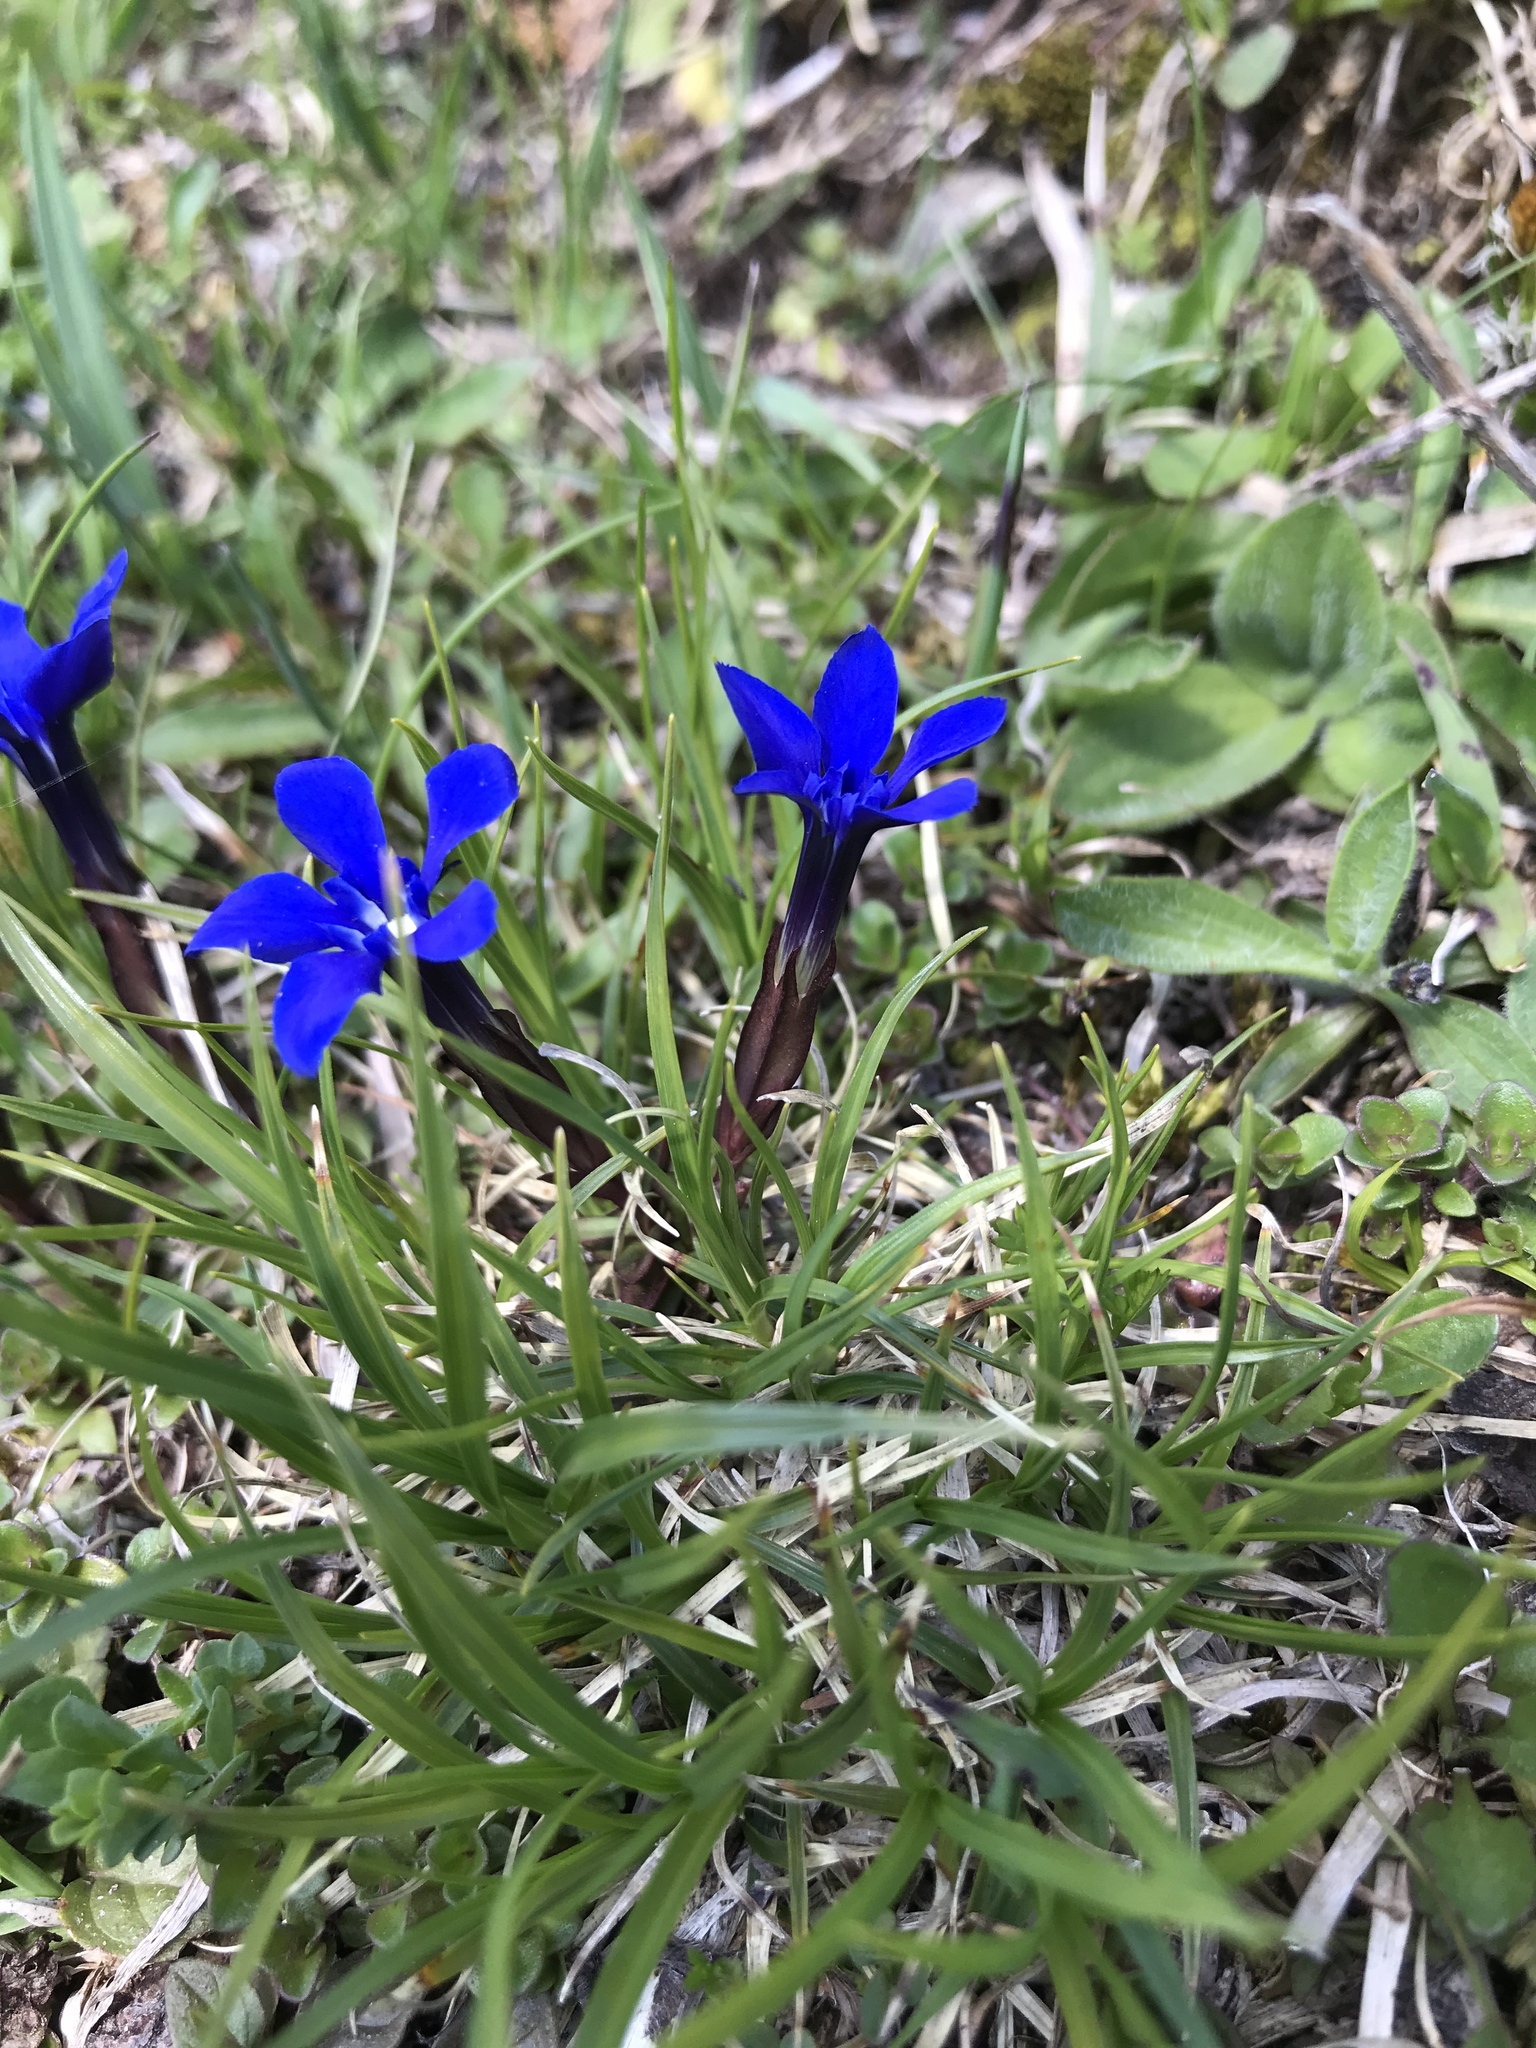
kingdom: Plantae
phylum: Tracheophyta
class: Magnoliopsida
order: Gentianales
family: Gentianaceae
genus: Gentiana
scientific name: Gentiana verna
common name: Spring gentian
